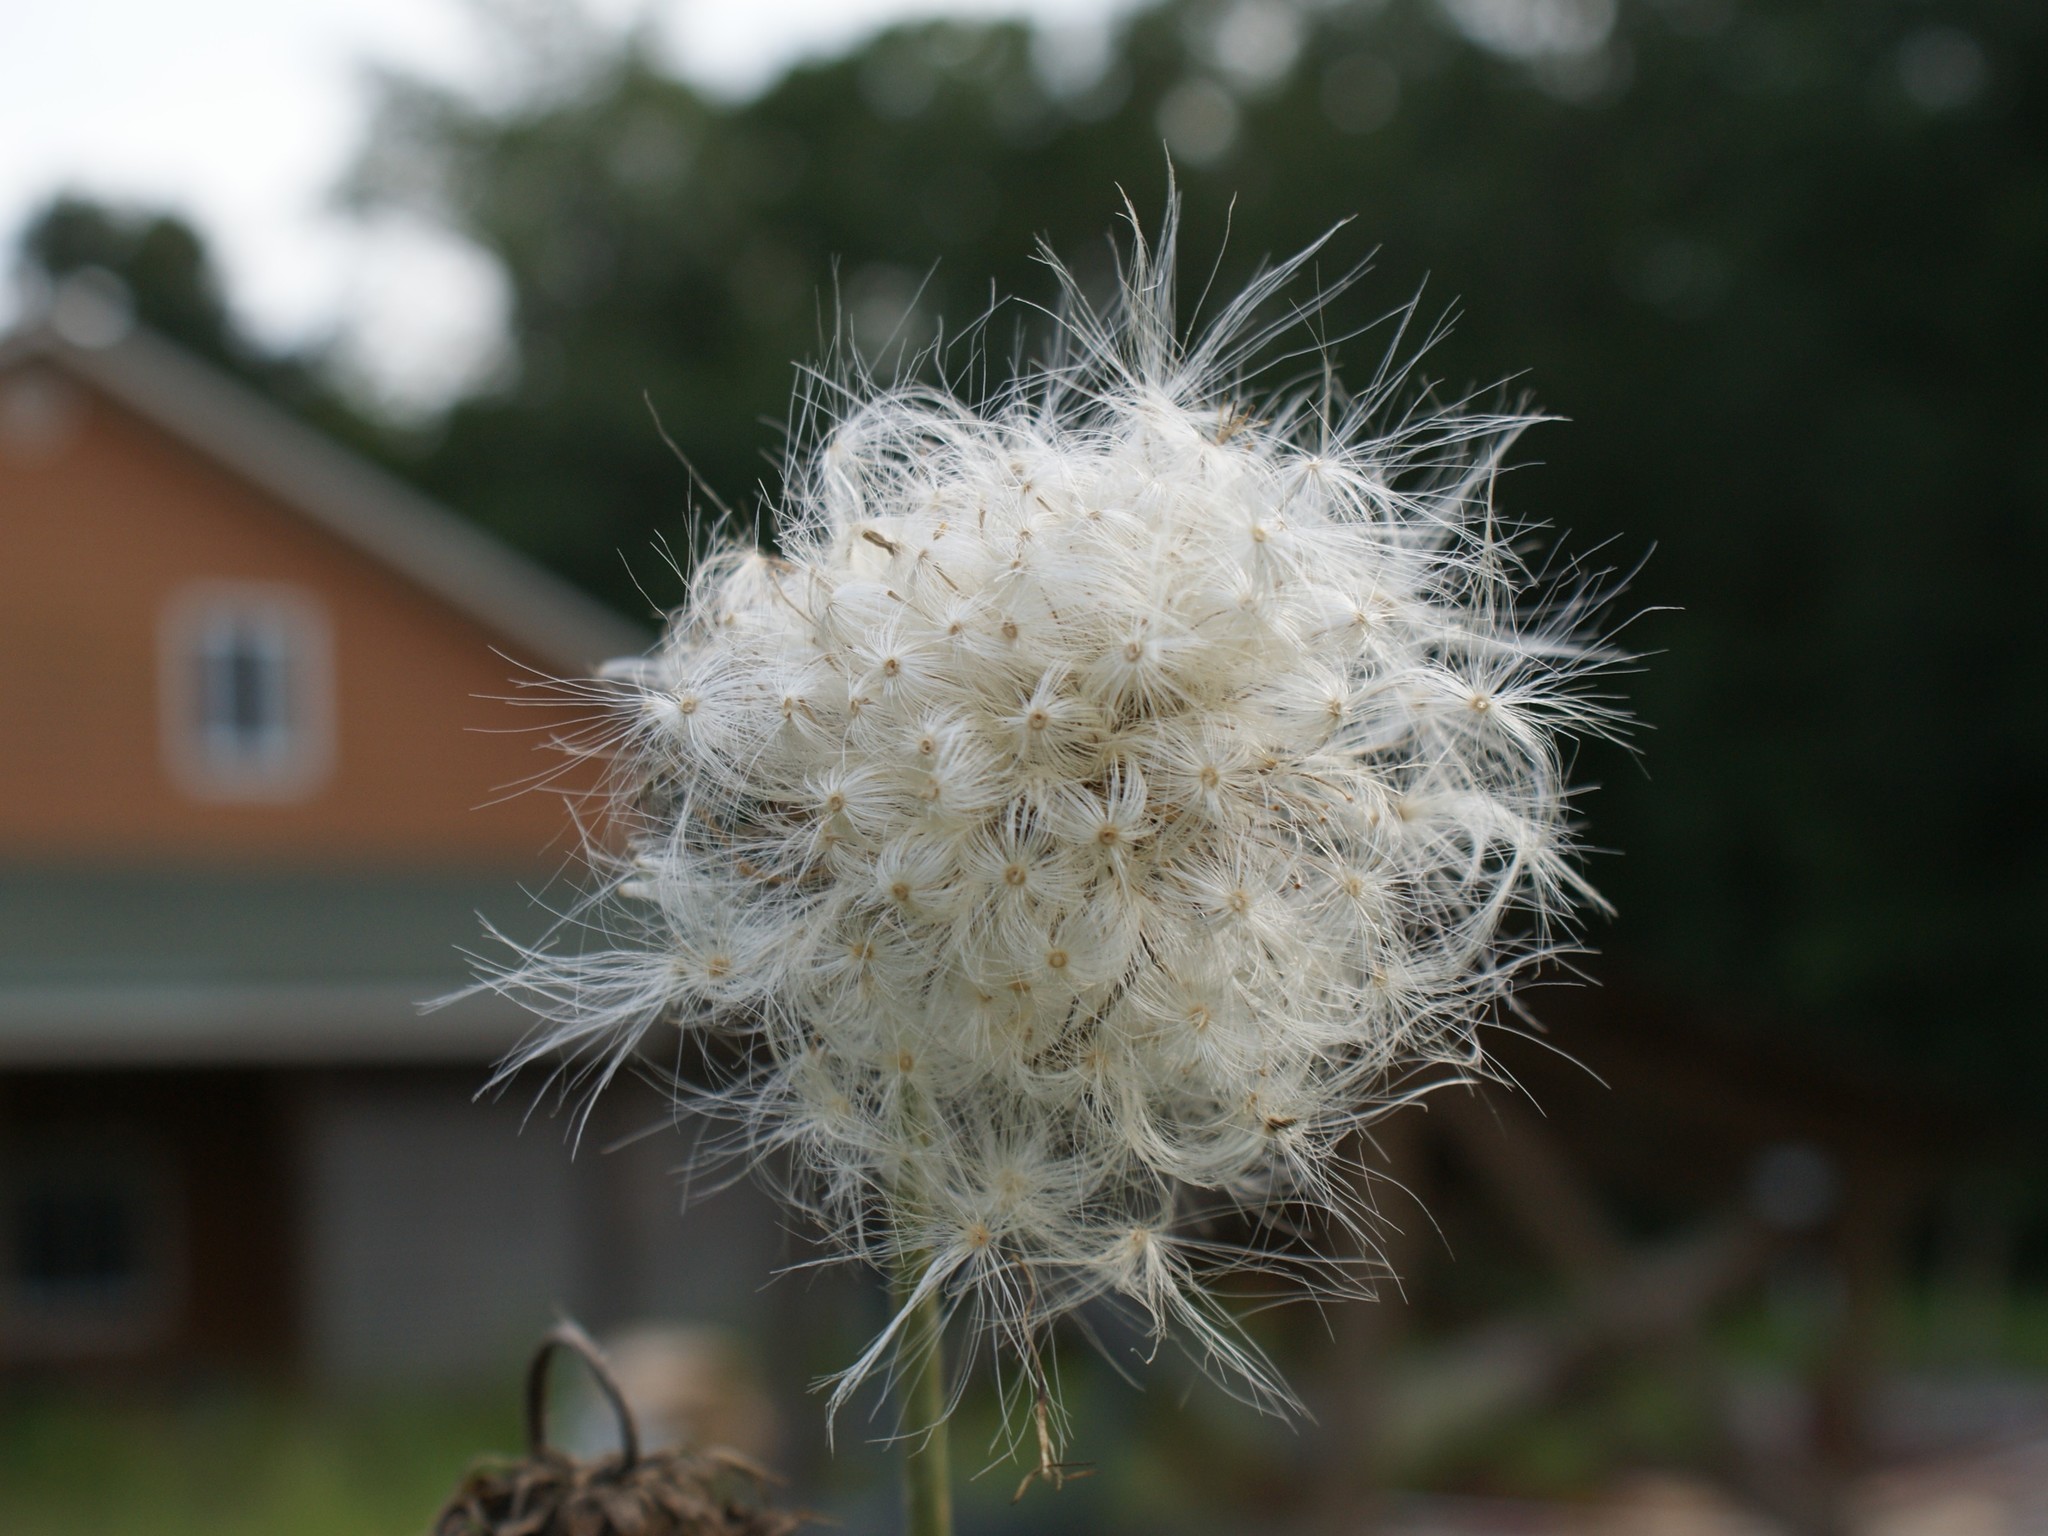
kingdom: Plantae
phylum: Tracheophyta
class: Magnoliopsida
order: Asterales
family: Asteraceae
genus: Carduus
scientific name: Carduus nutans
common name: Musk thistle
